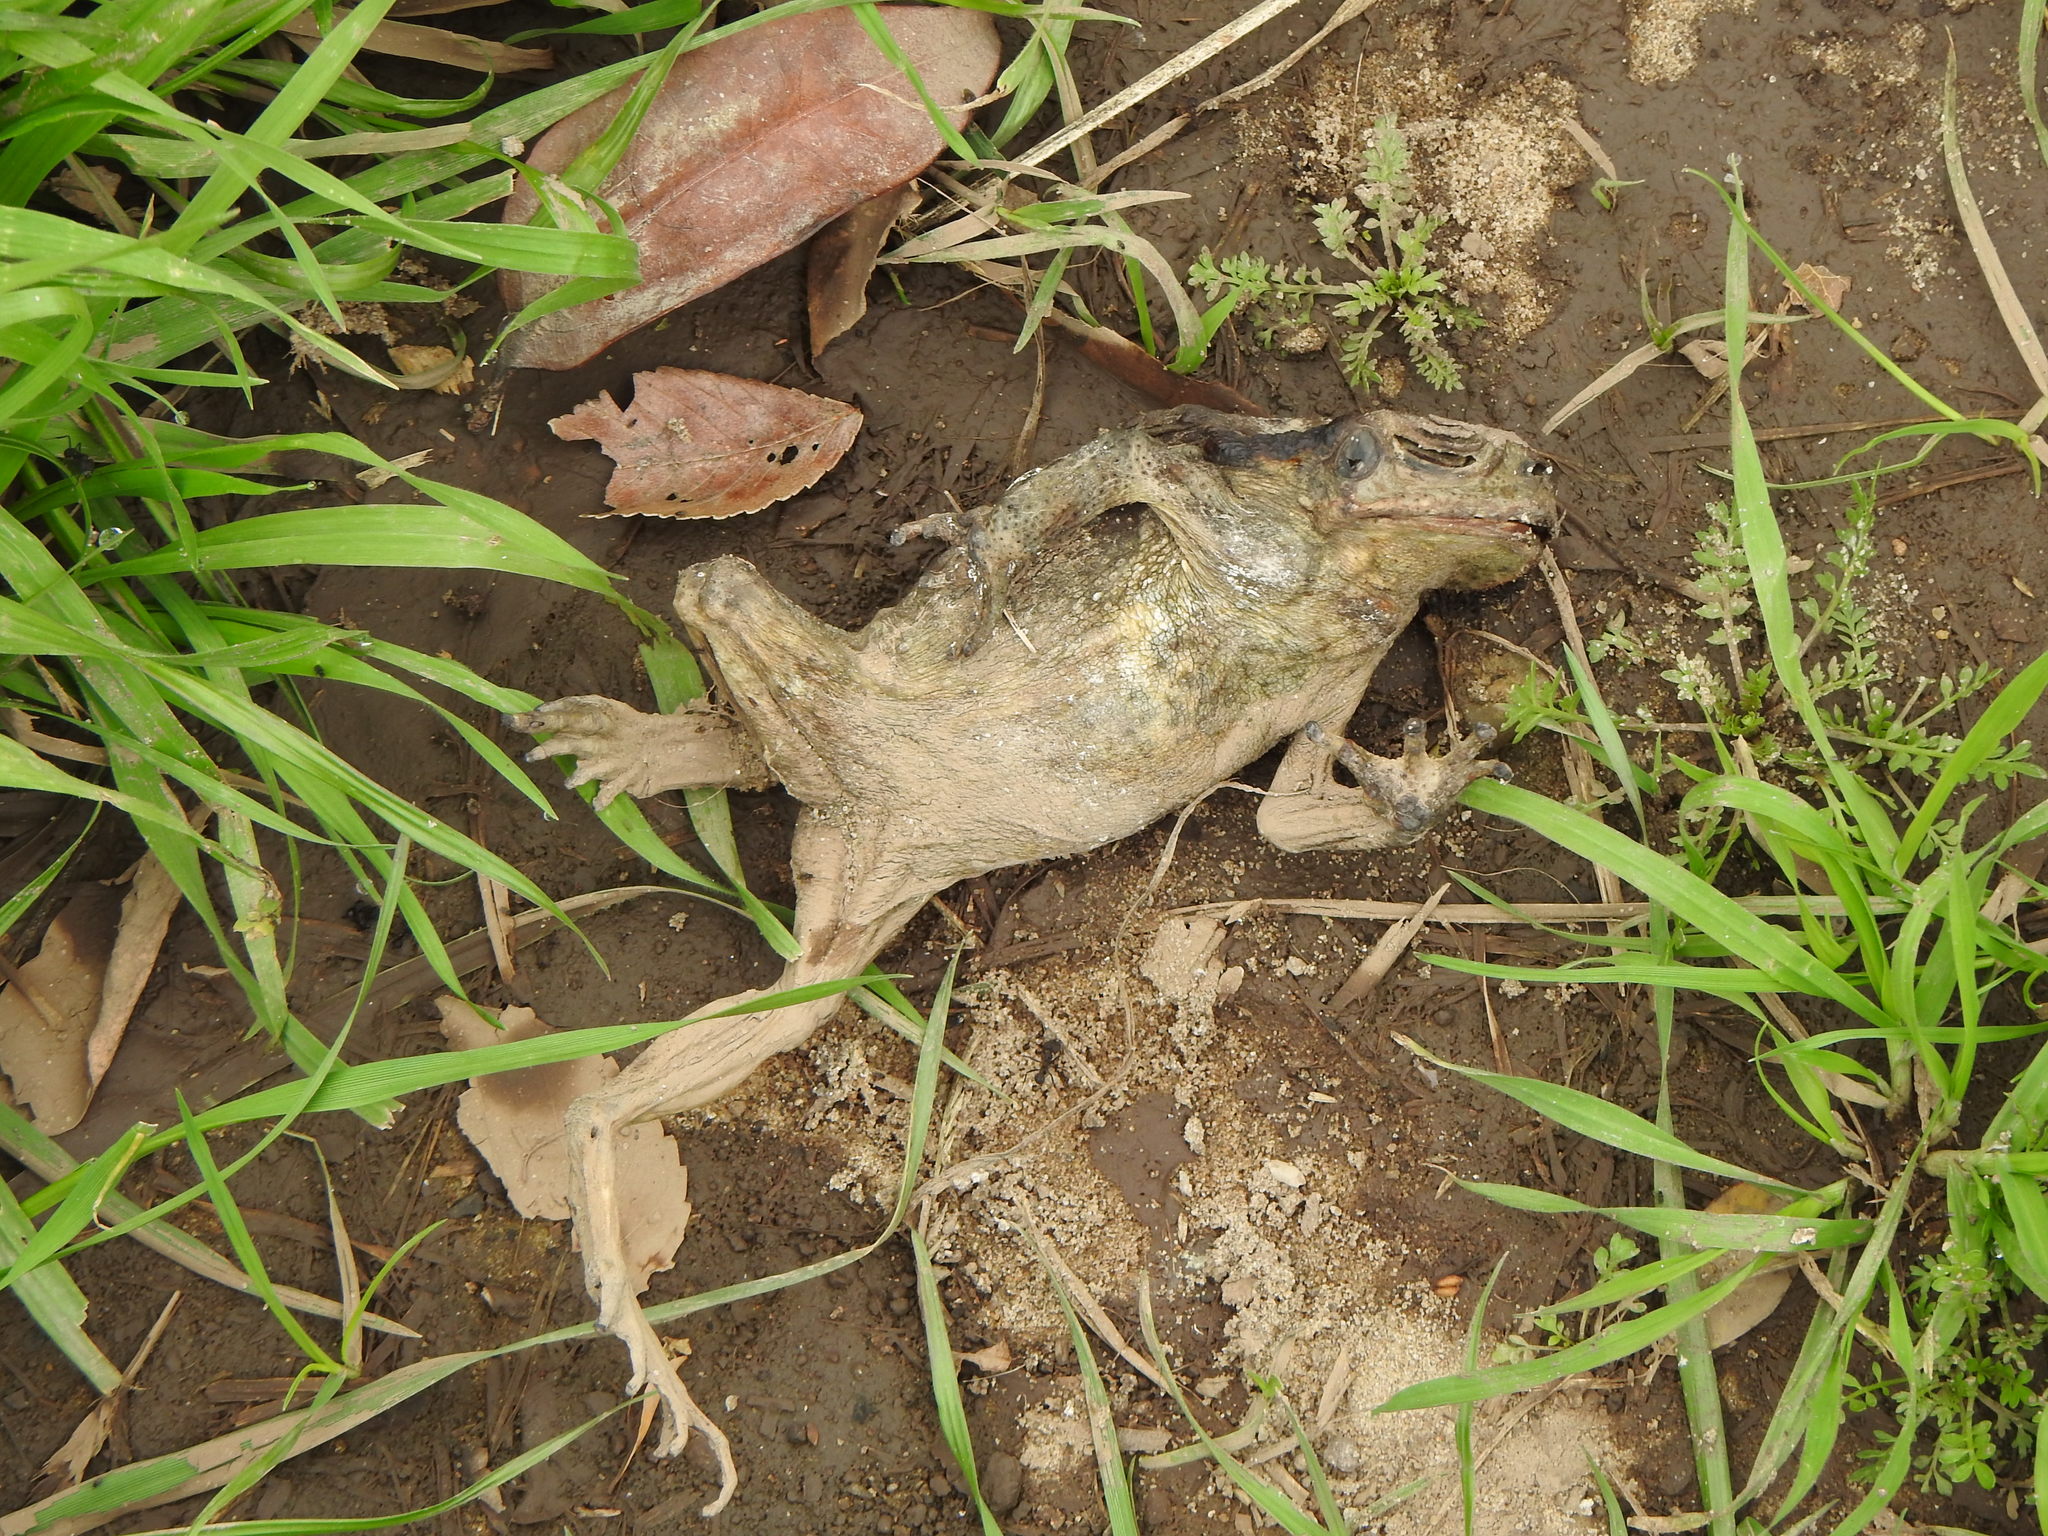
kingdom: Animalia
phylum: Chordata
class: Amphibia
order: Anura
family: Bufonidae
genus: Rhinella
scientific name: Rhinella arenarum
